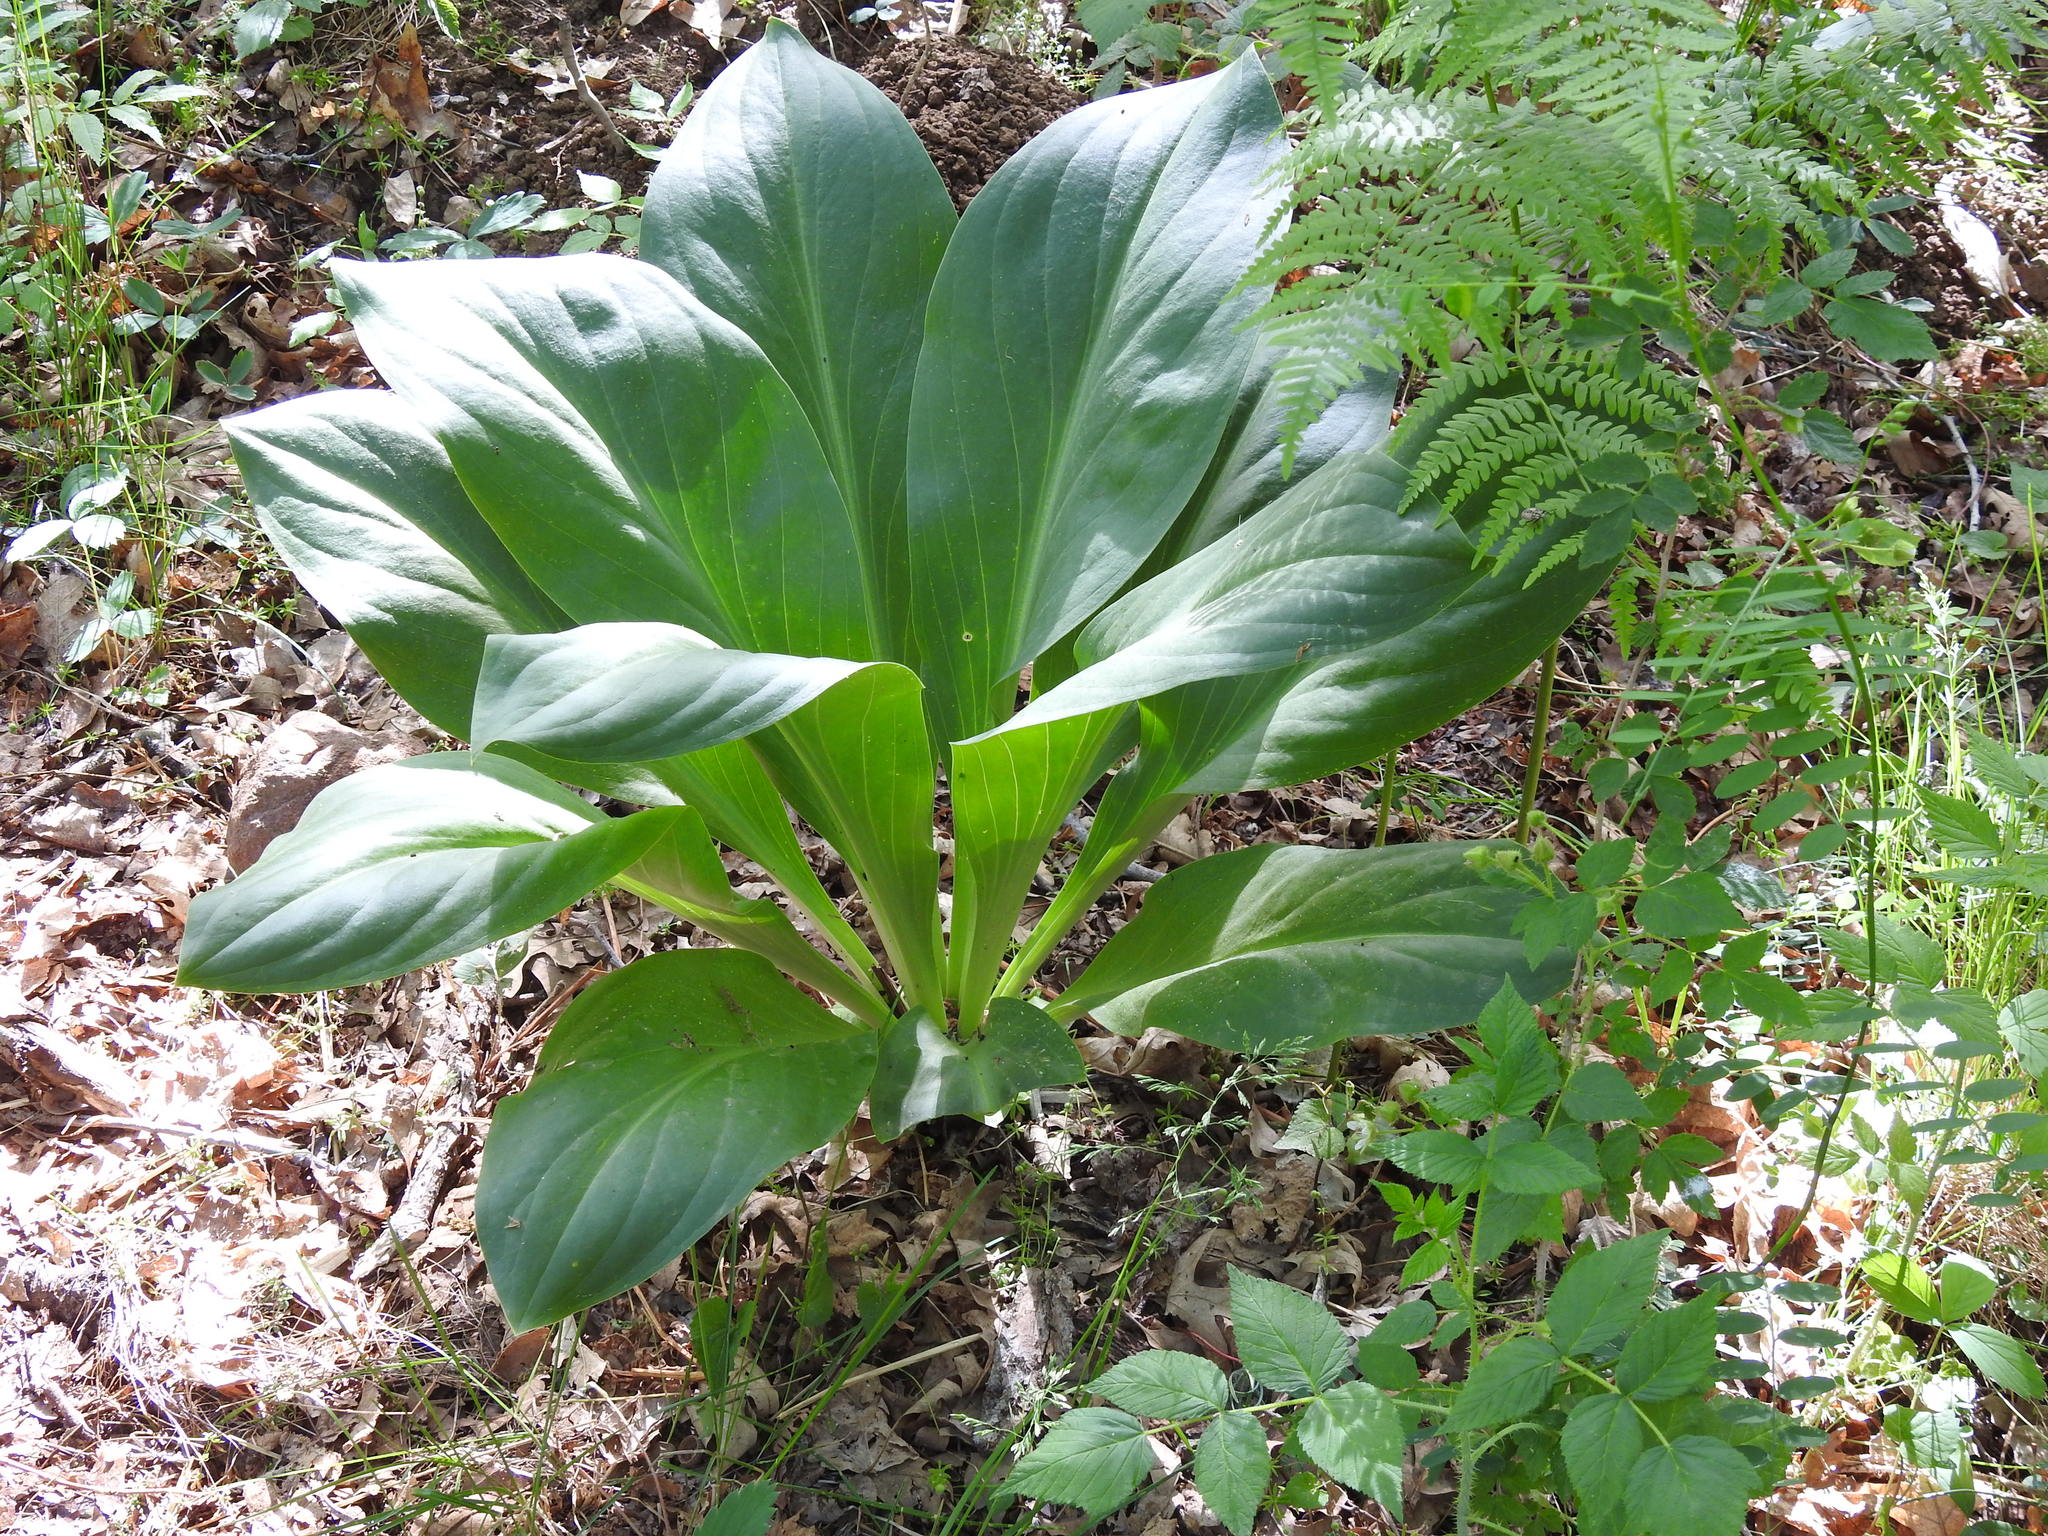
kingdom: Plantae
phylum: Tracheophyta
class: Magnoliopsida
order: Gentianales
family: Gentianaceae
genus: Frasera
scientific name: Frasera speciosa
